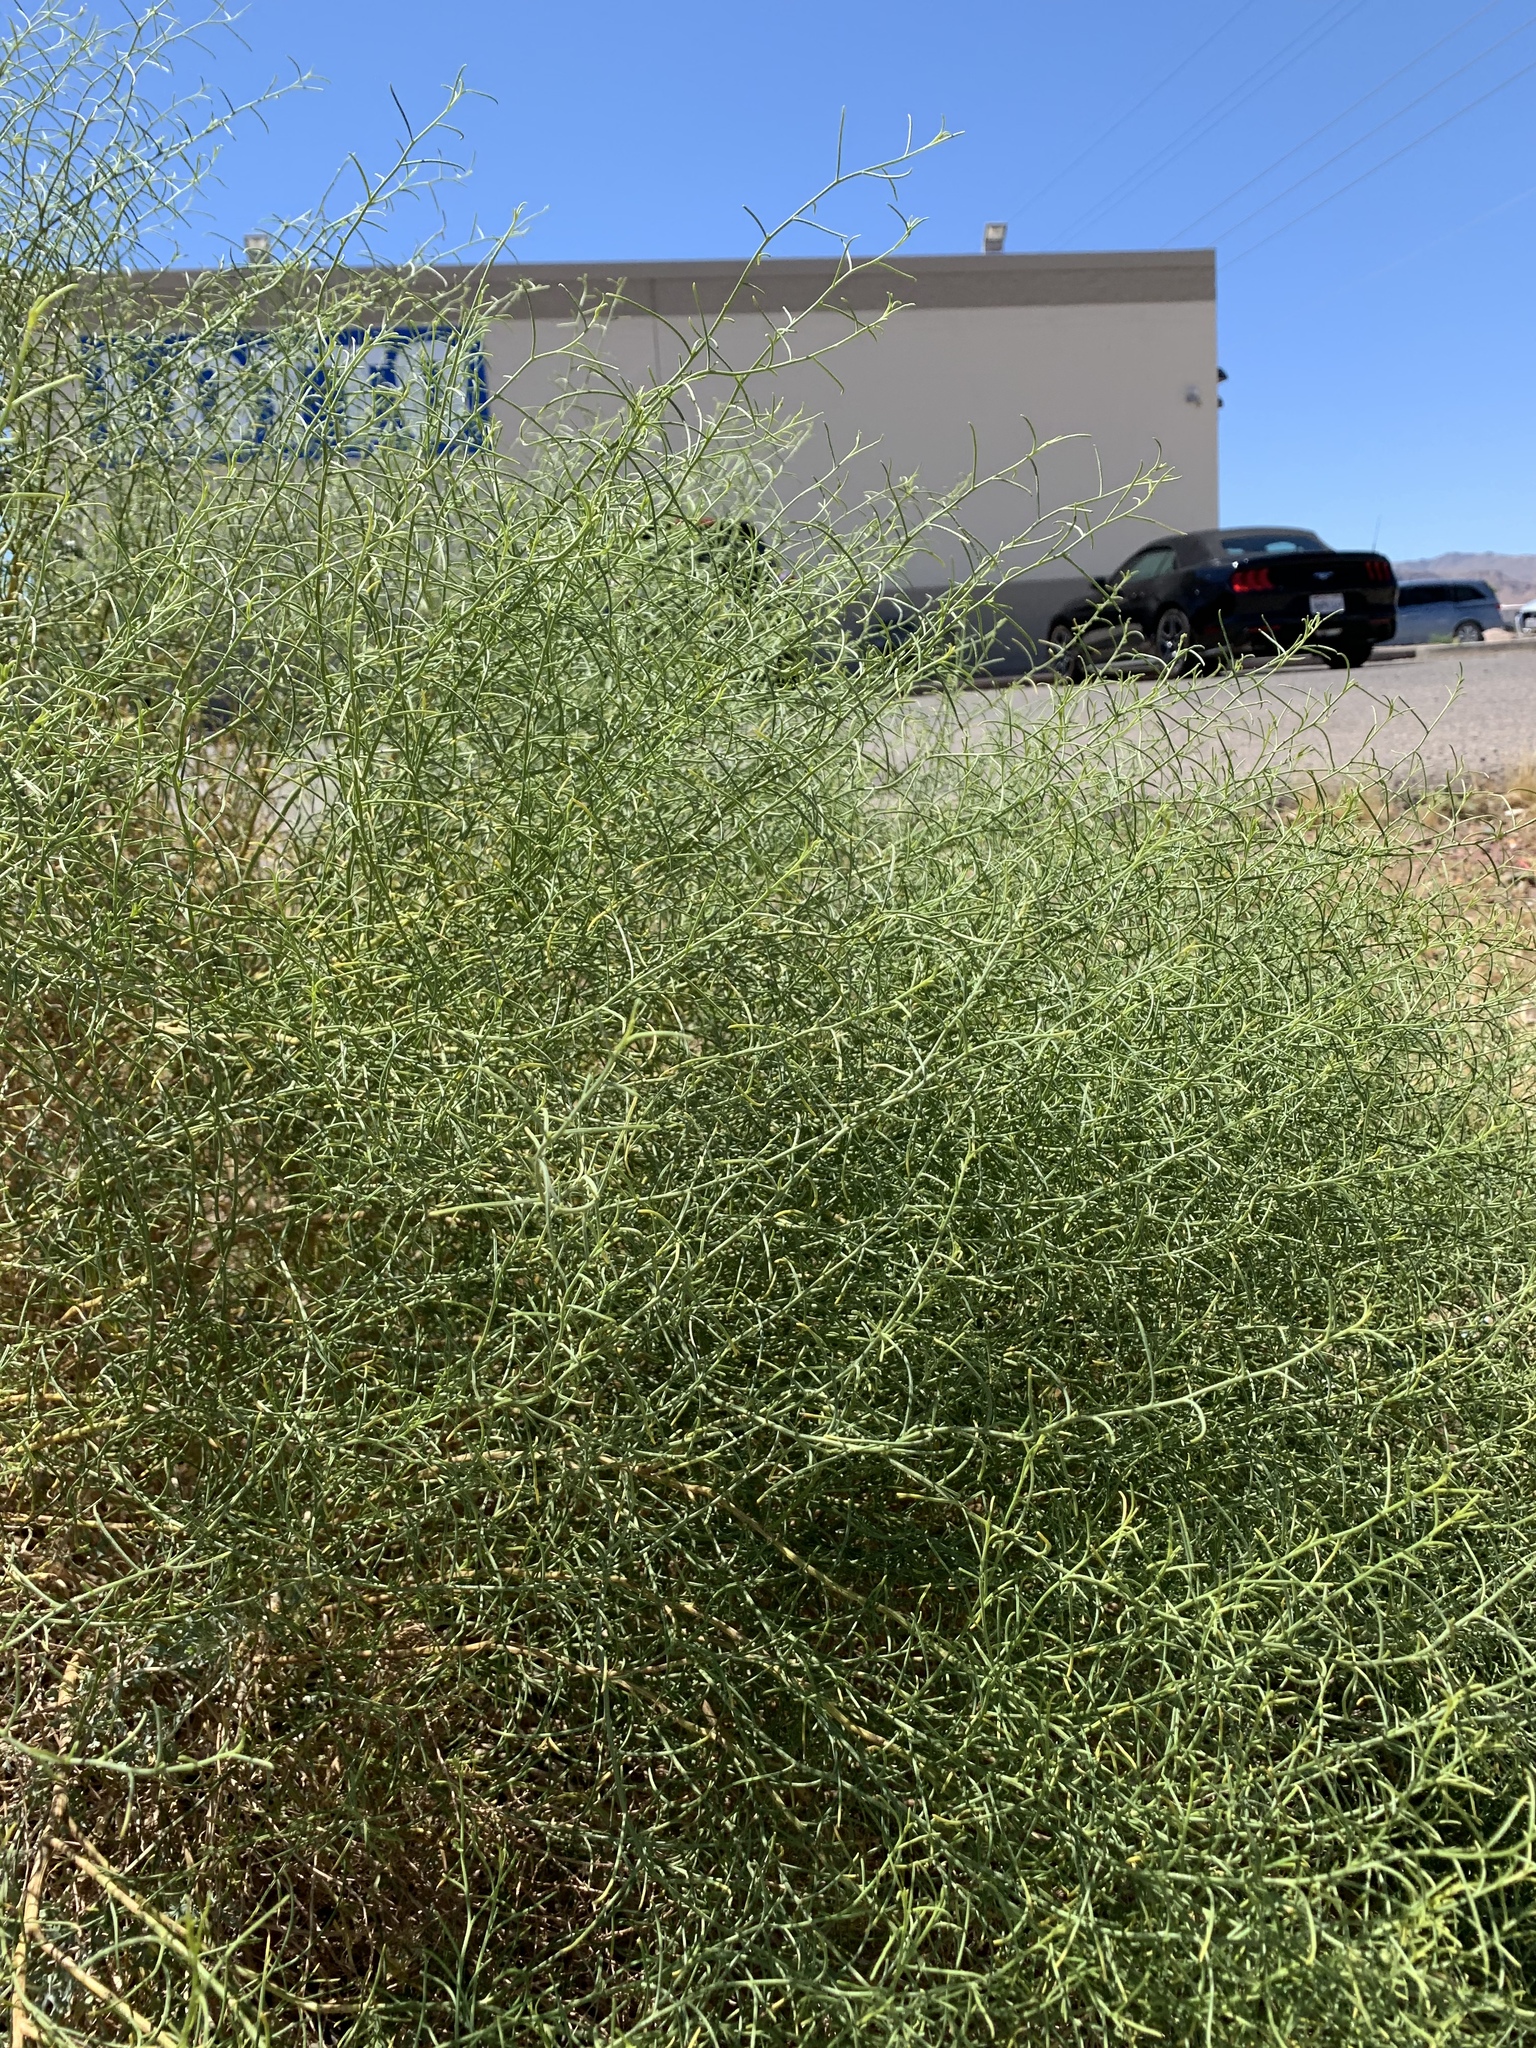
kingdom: Plantae
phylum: Tracheophyta
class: Magnoliopsida
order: Asterales
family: Asteraceae
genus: Ambrosia
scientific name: Ambrosia salsola
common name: Burrobrush
